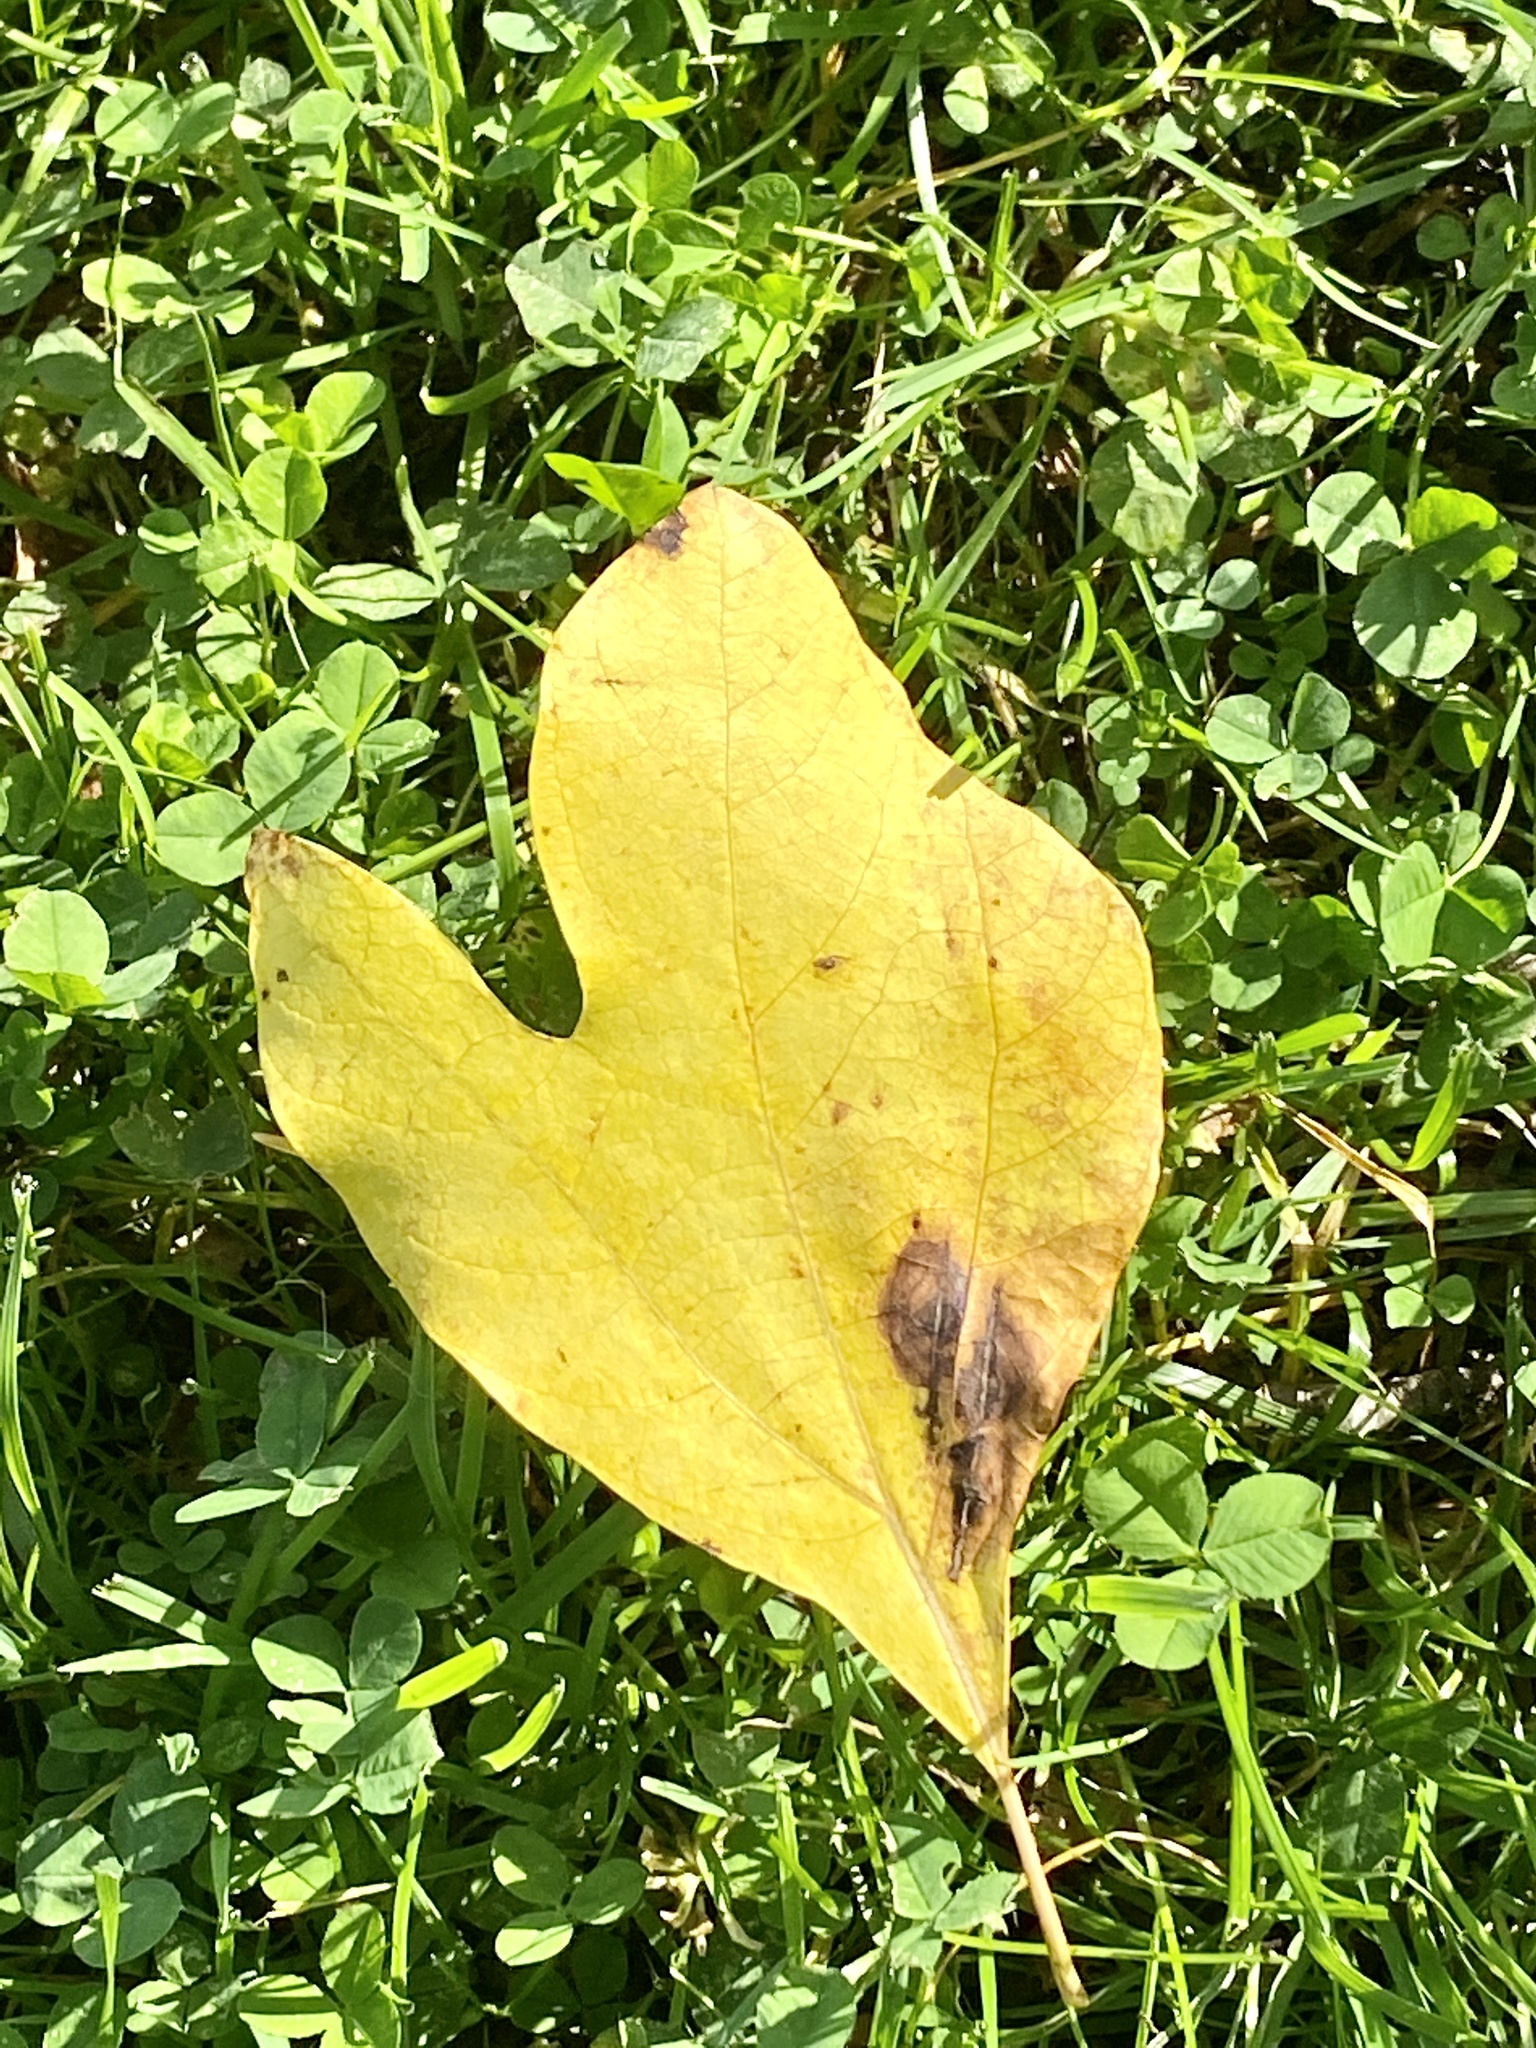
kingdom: Plantae
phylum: Tracheophyta
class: Magnoliopsida
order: Laurales
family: Lauraceae
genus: Sassafras
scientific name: Sassafras albidum
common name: Sassafras
